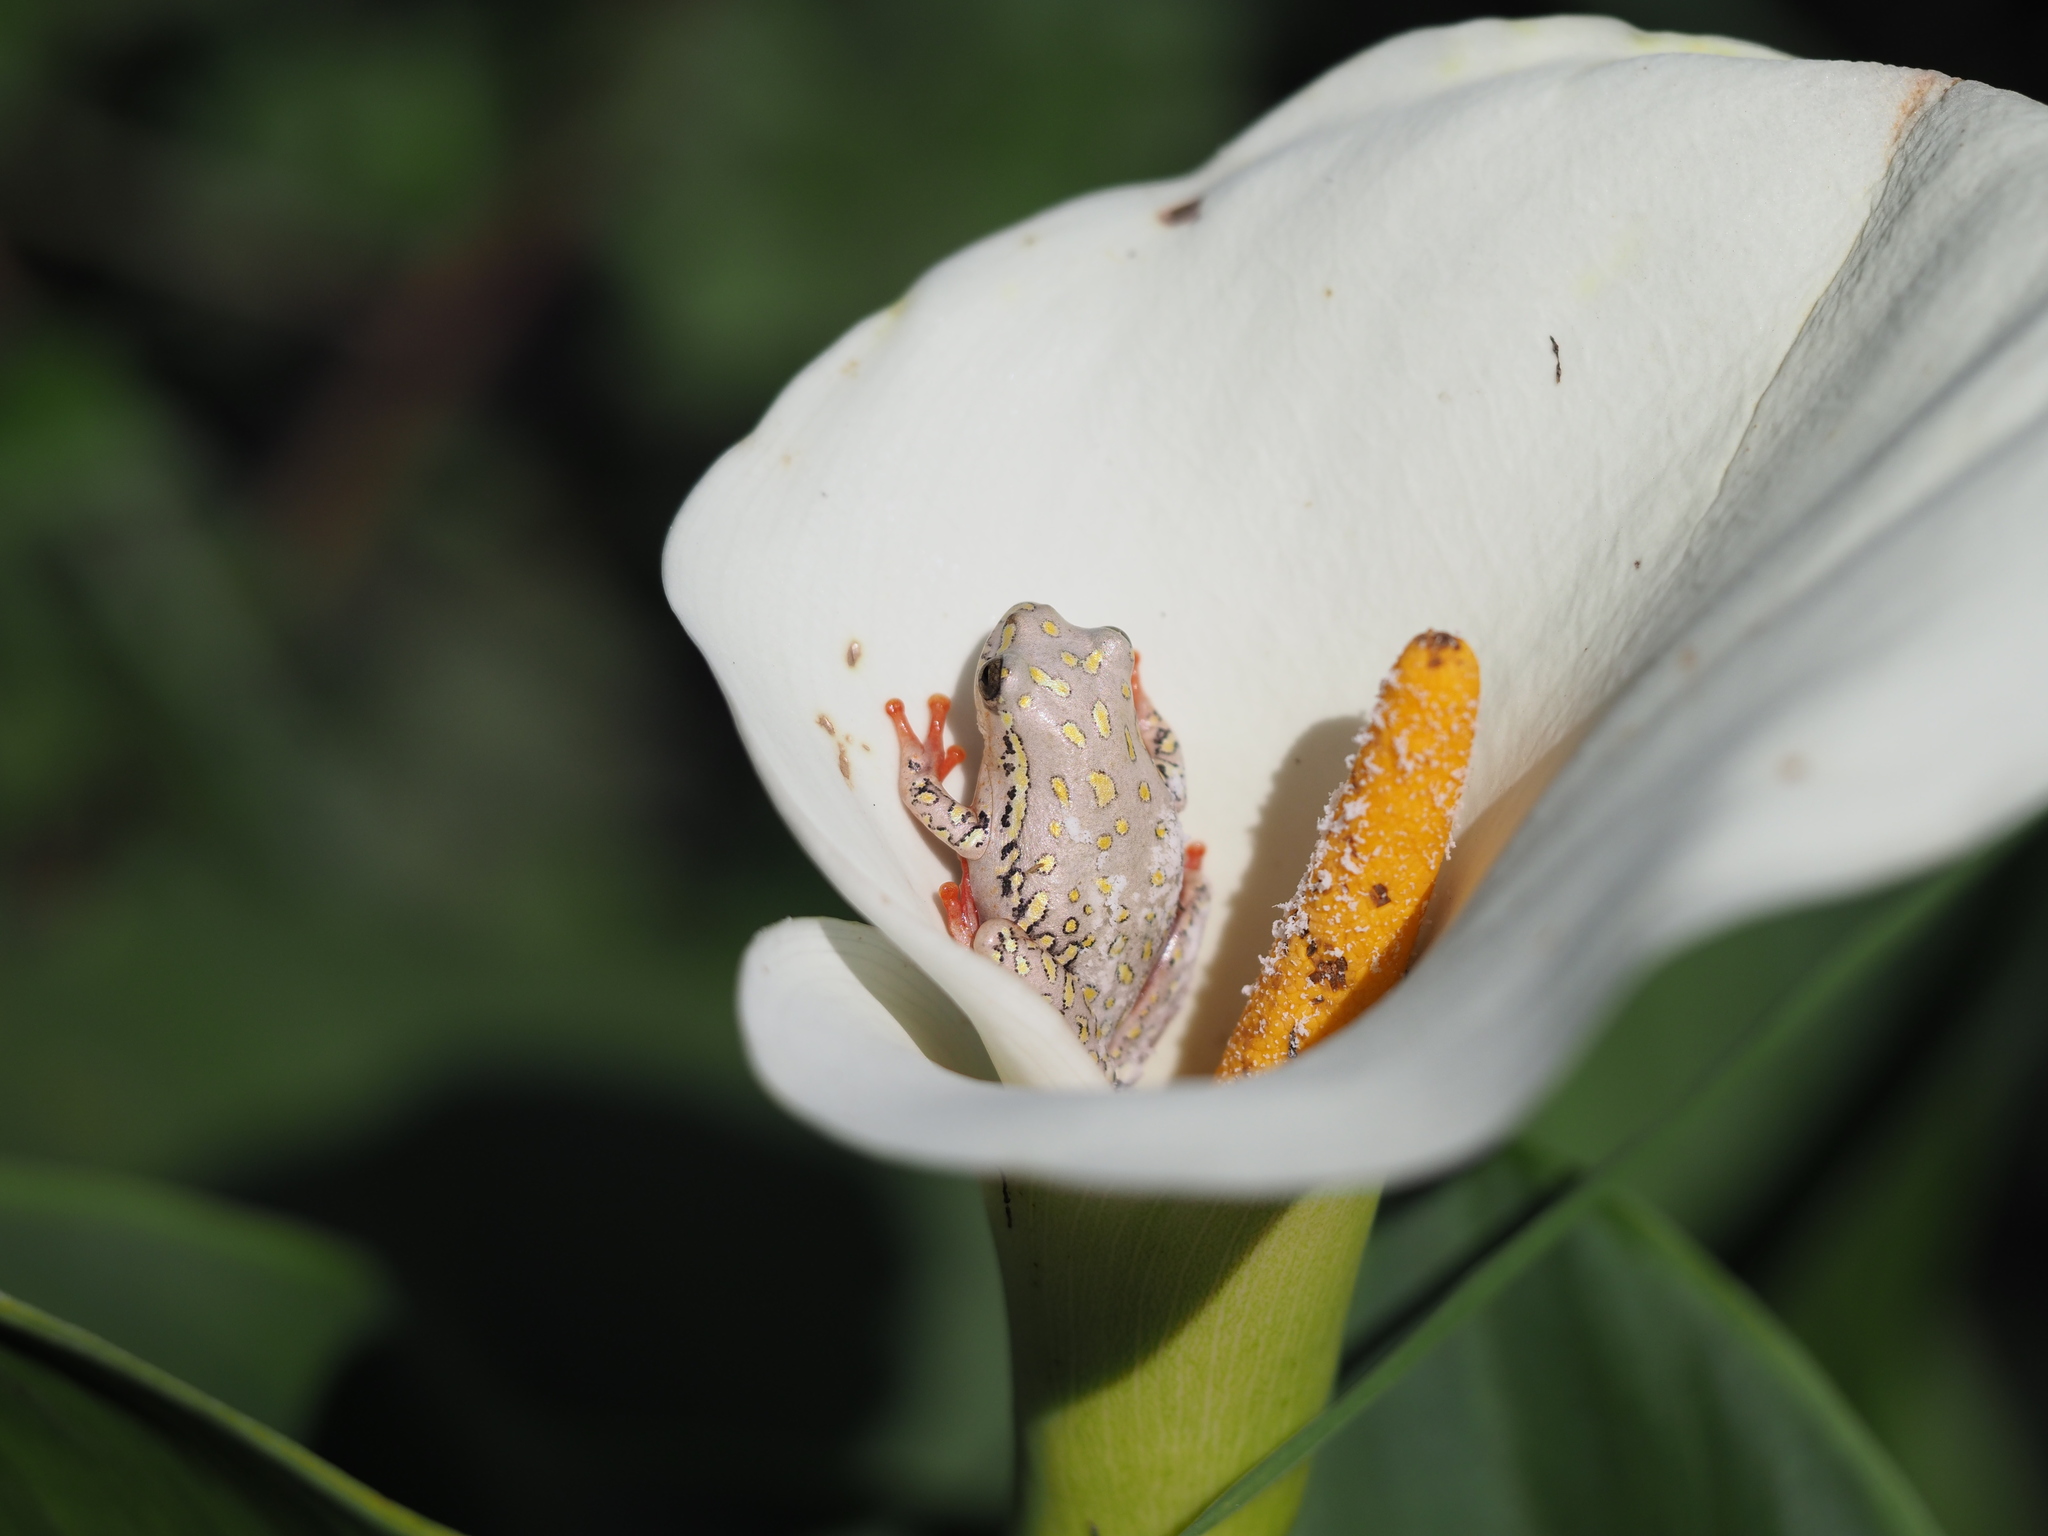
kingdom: Animalia
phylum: Chordata
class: Amphibia
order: Anura
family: Hyperoliidae
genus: Hyperolius
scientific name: Hyperolius marmoratus
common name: Painted reed frog
